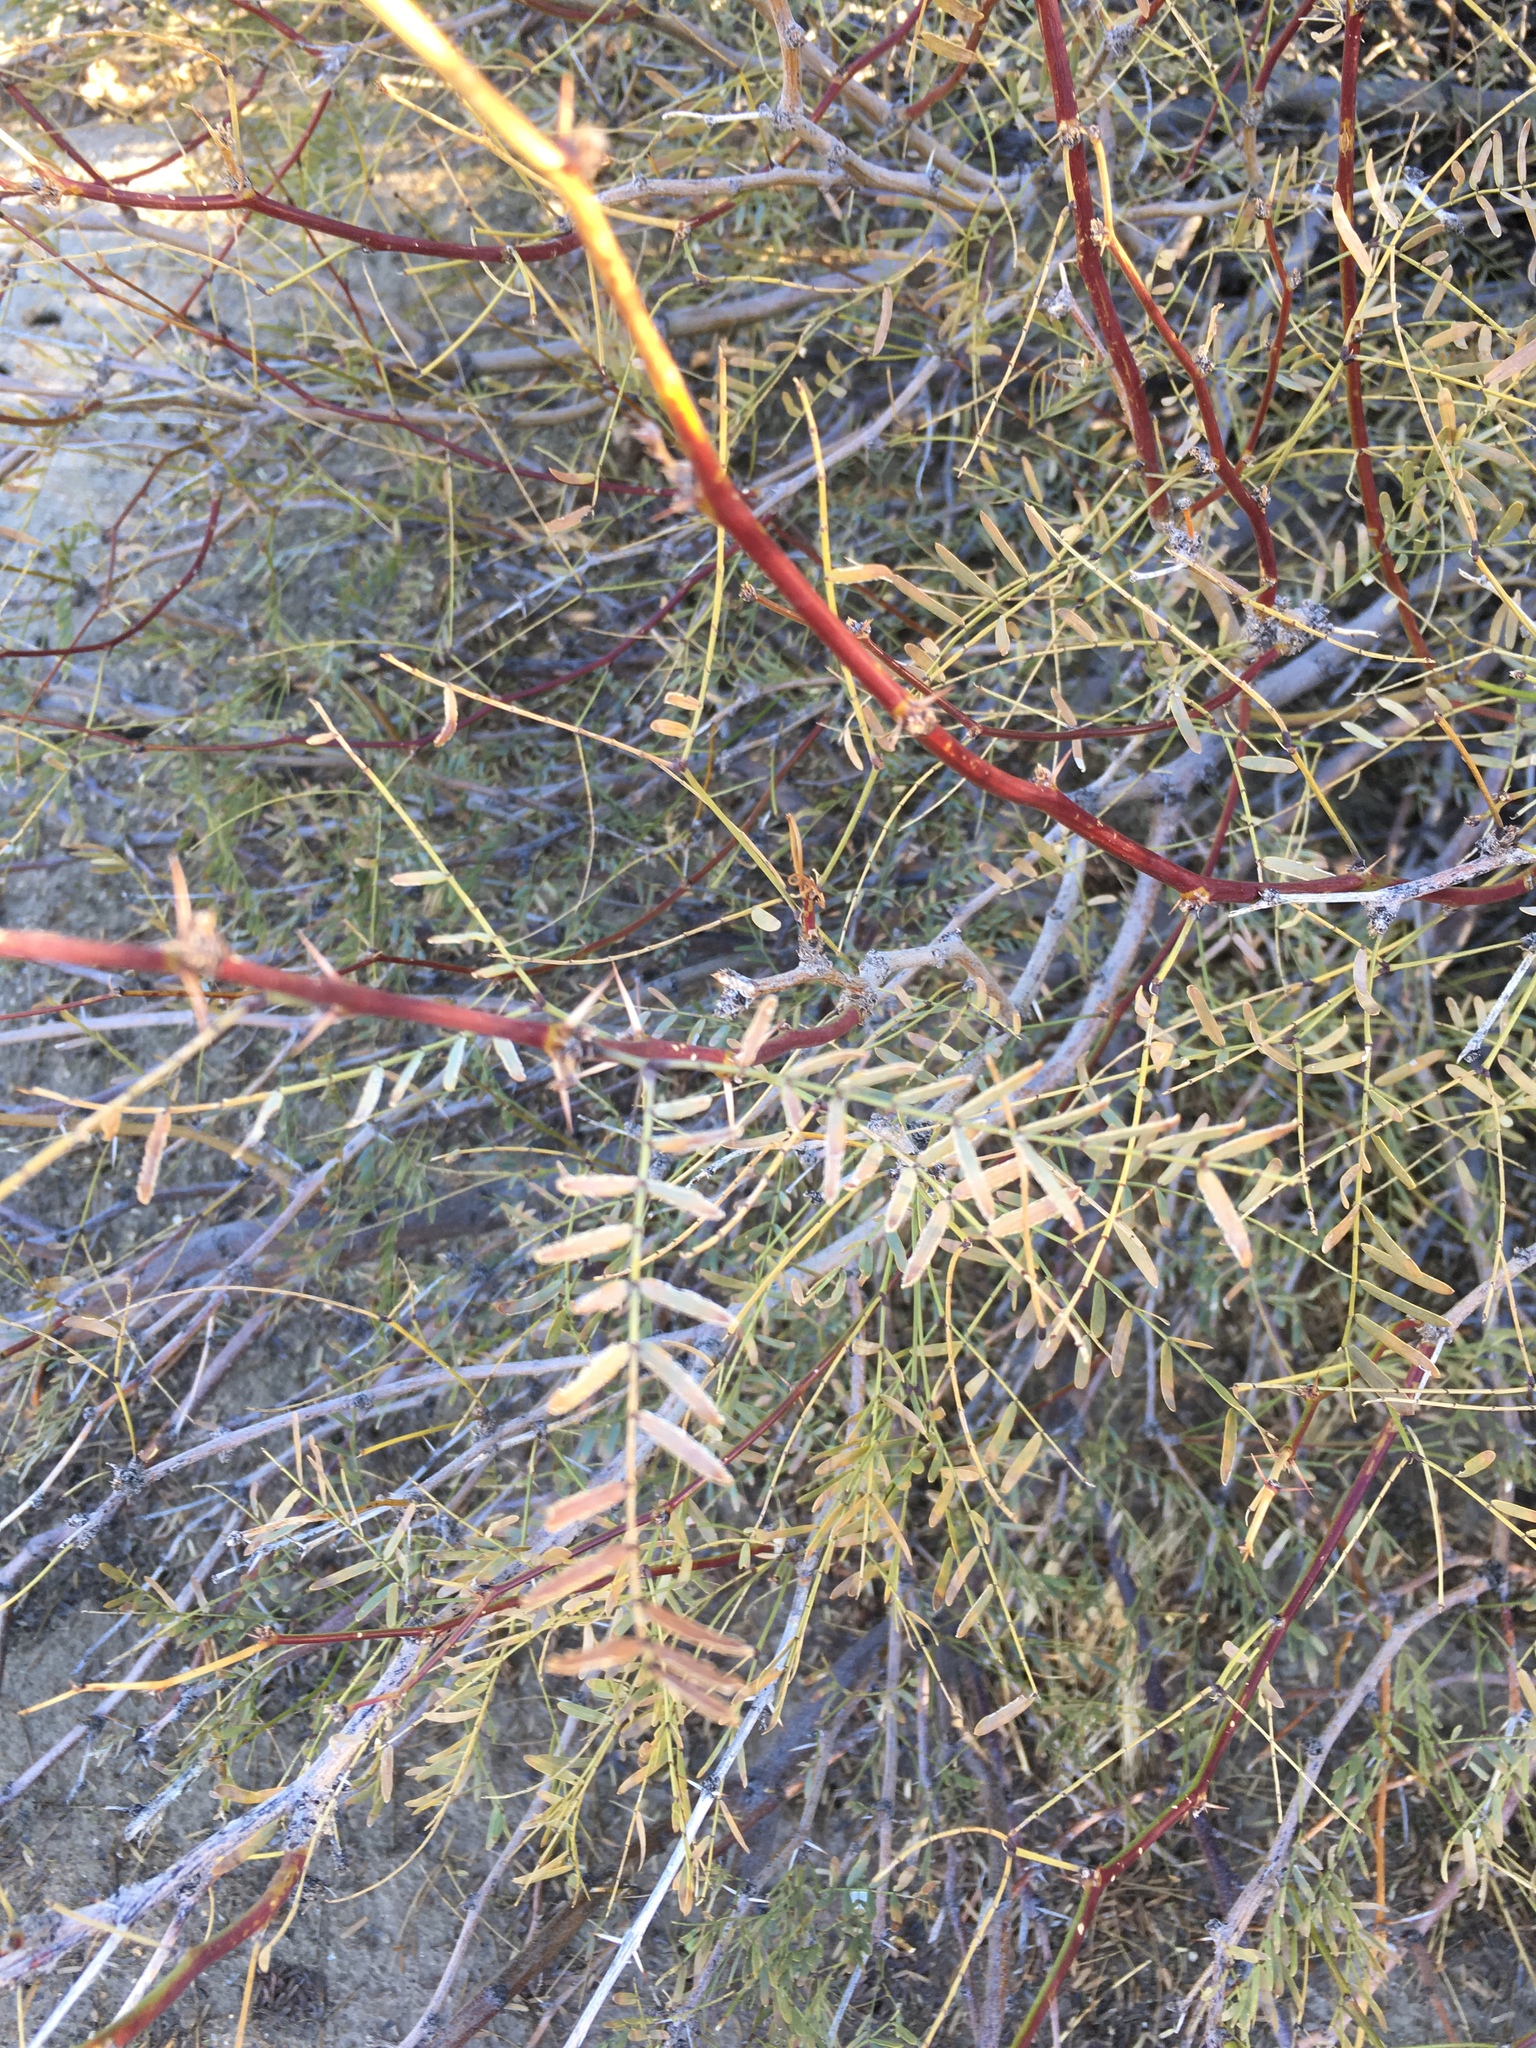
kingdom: Plantae
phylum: Tracheophyta
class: Magnoliopsida
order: Fabales
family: Fabaceae
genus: Prosopis
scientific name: Prosopis pubescens
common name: Screw-bean
